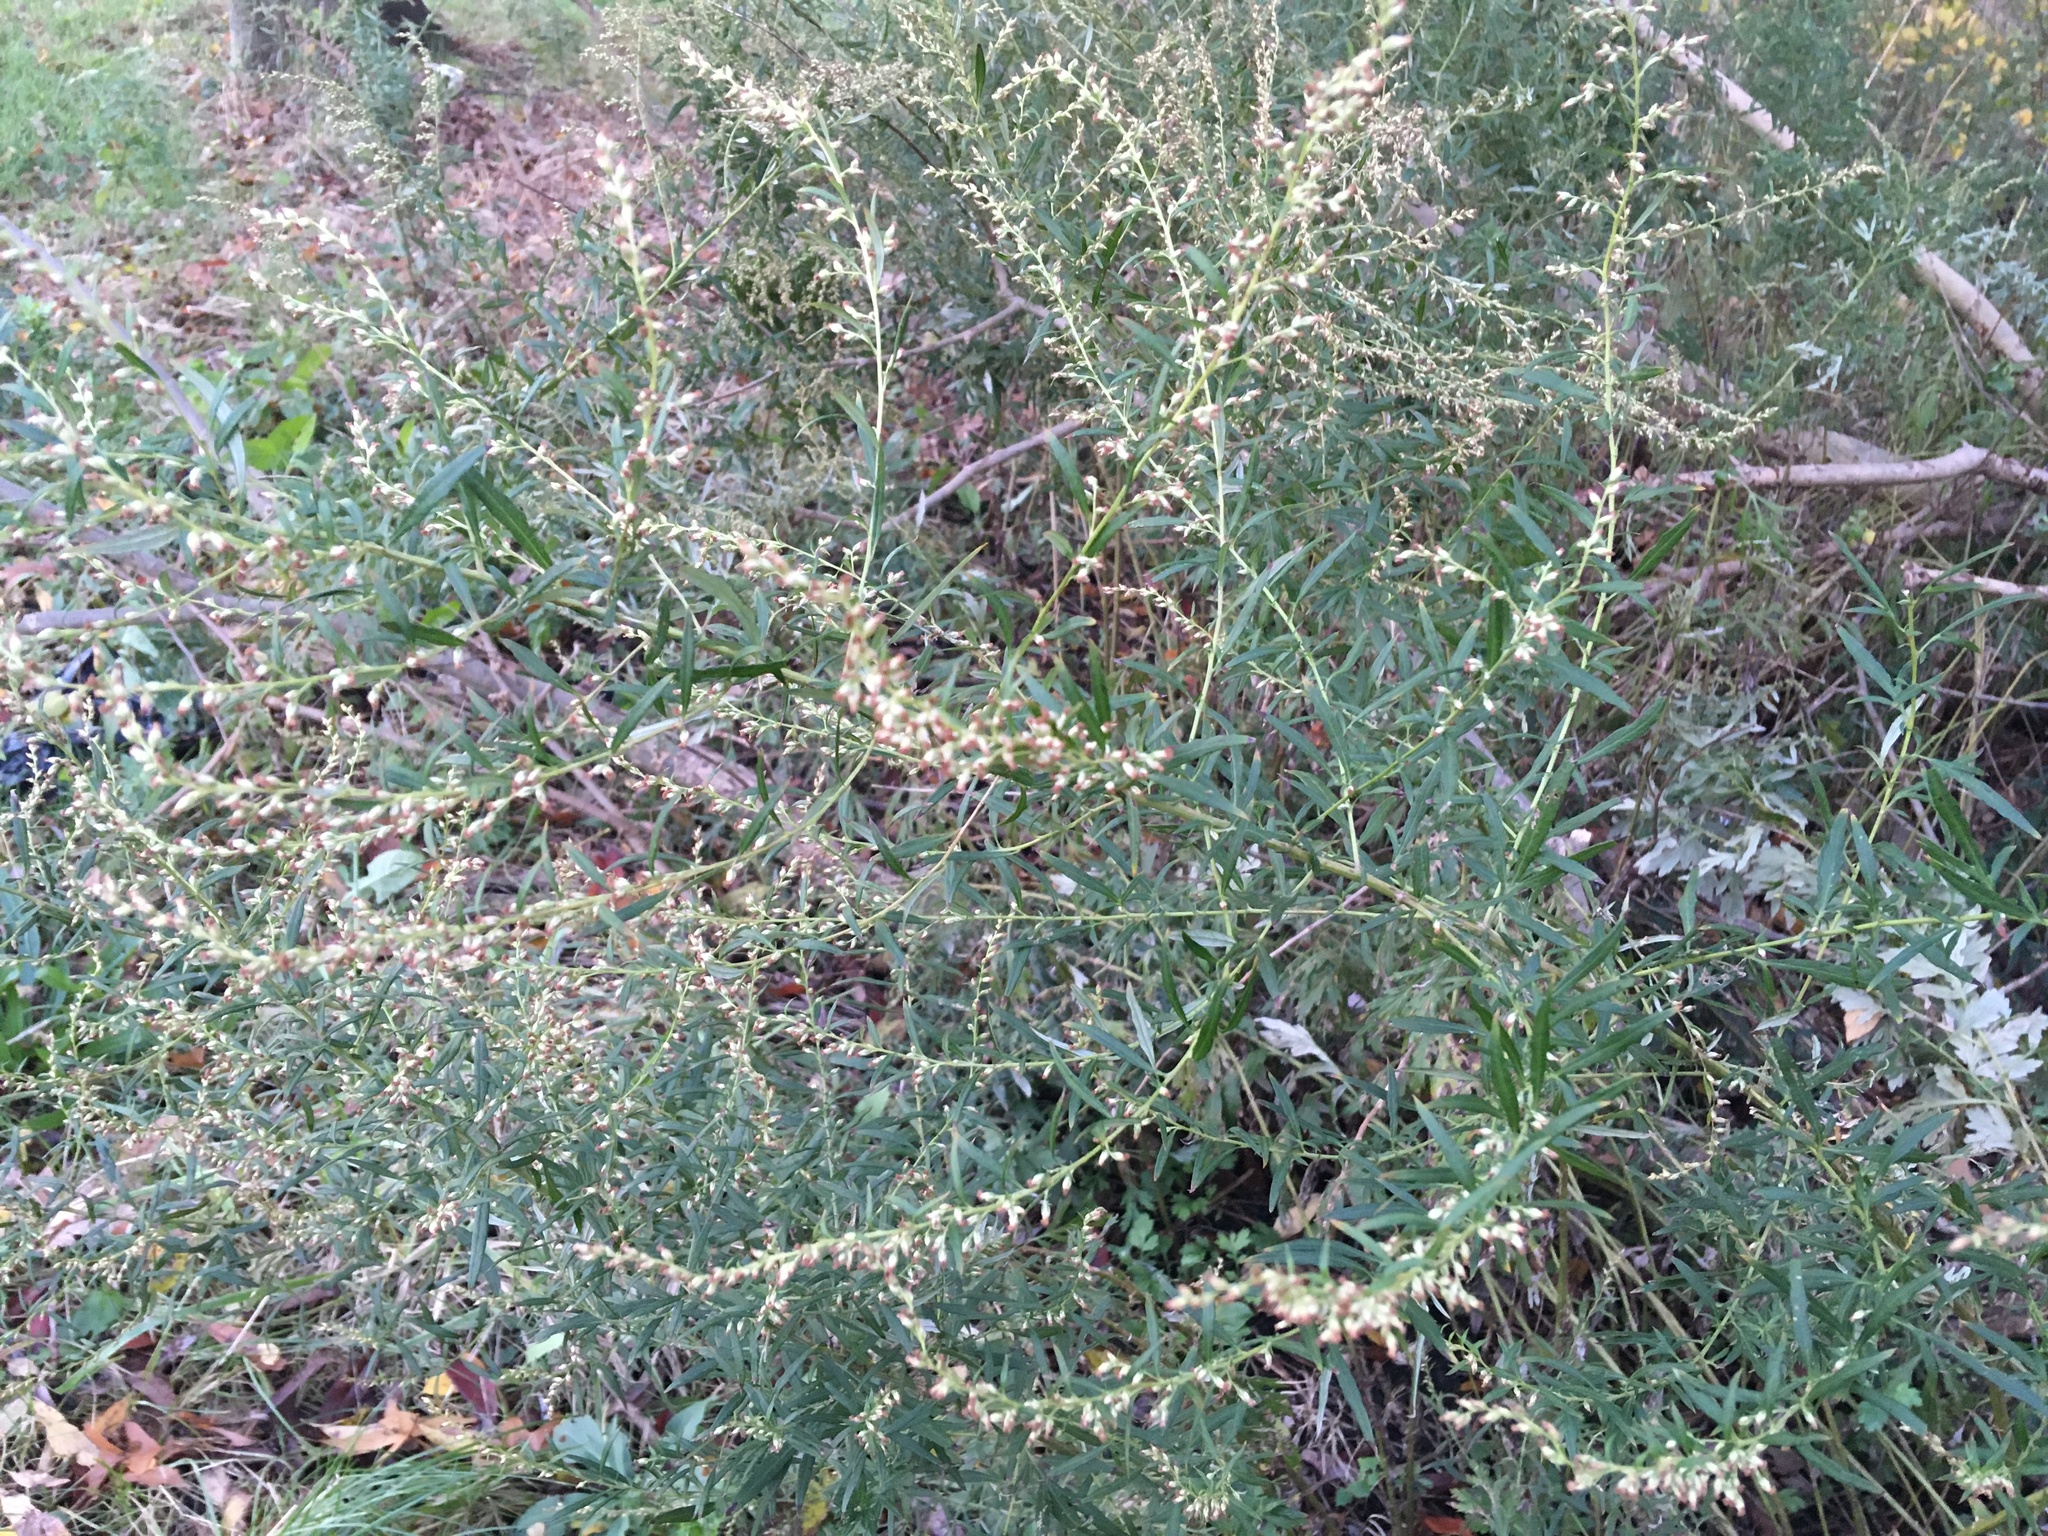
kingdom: Plantae
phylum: Tracheophyta
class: Magnoliopsida
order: Asterales
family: Asteraceae
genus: Artemisia
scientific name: Artemisia vulgaris
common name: Mugwort
